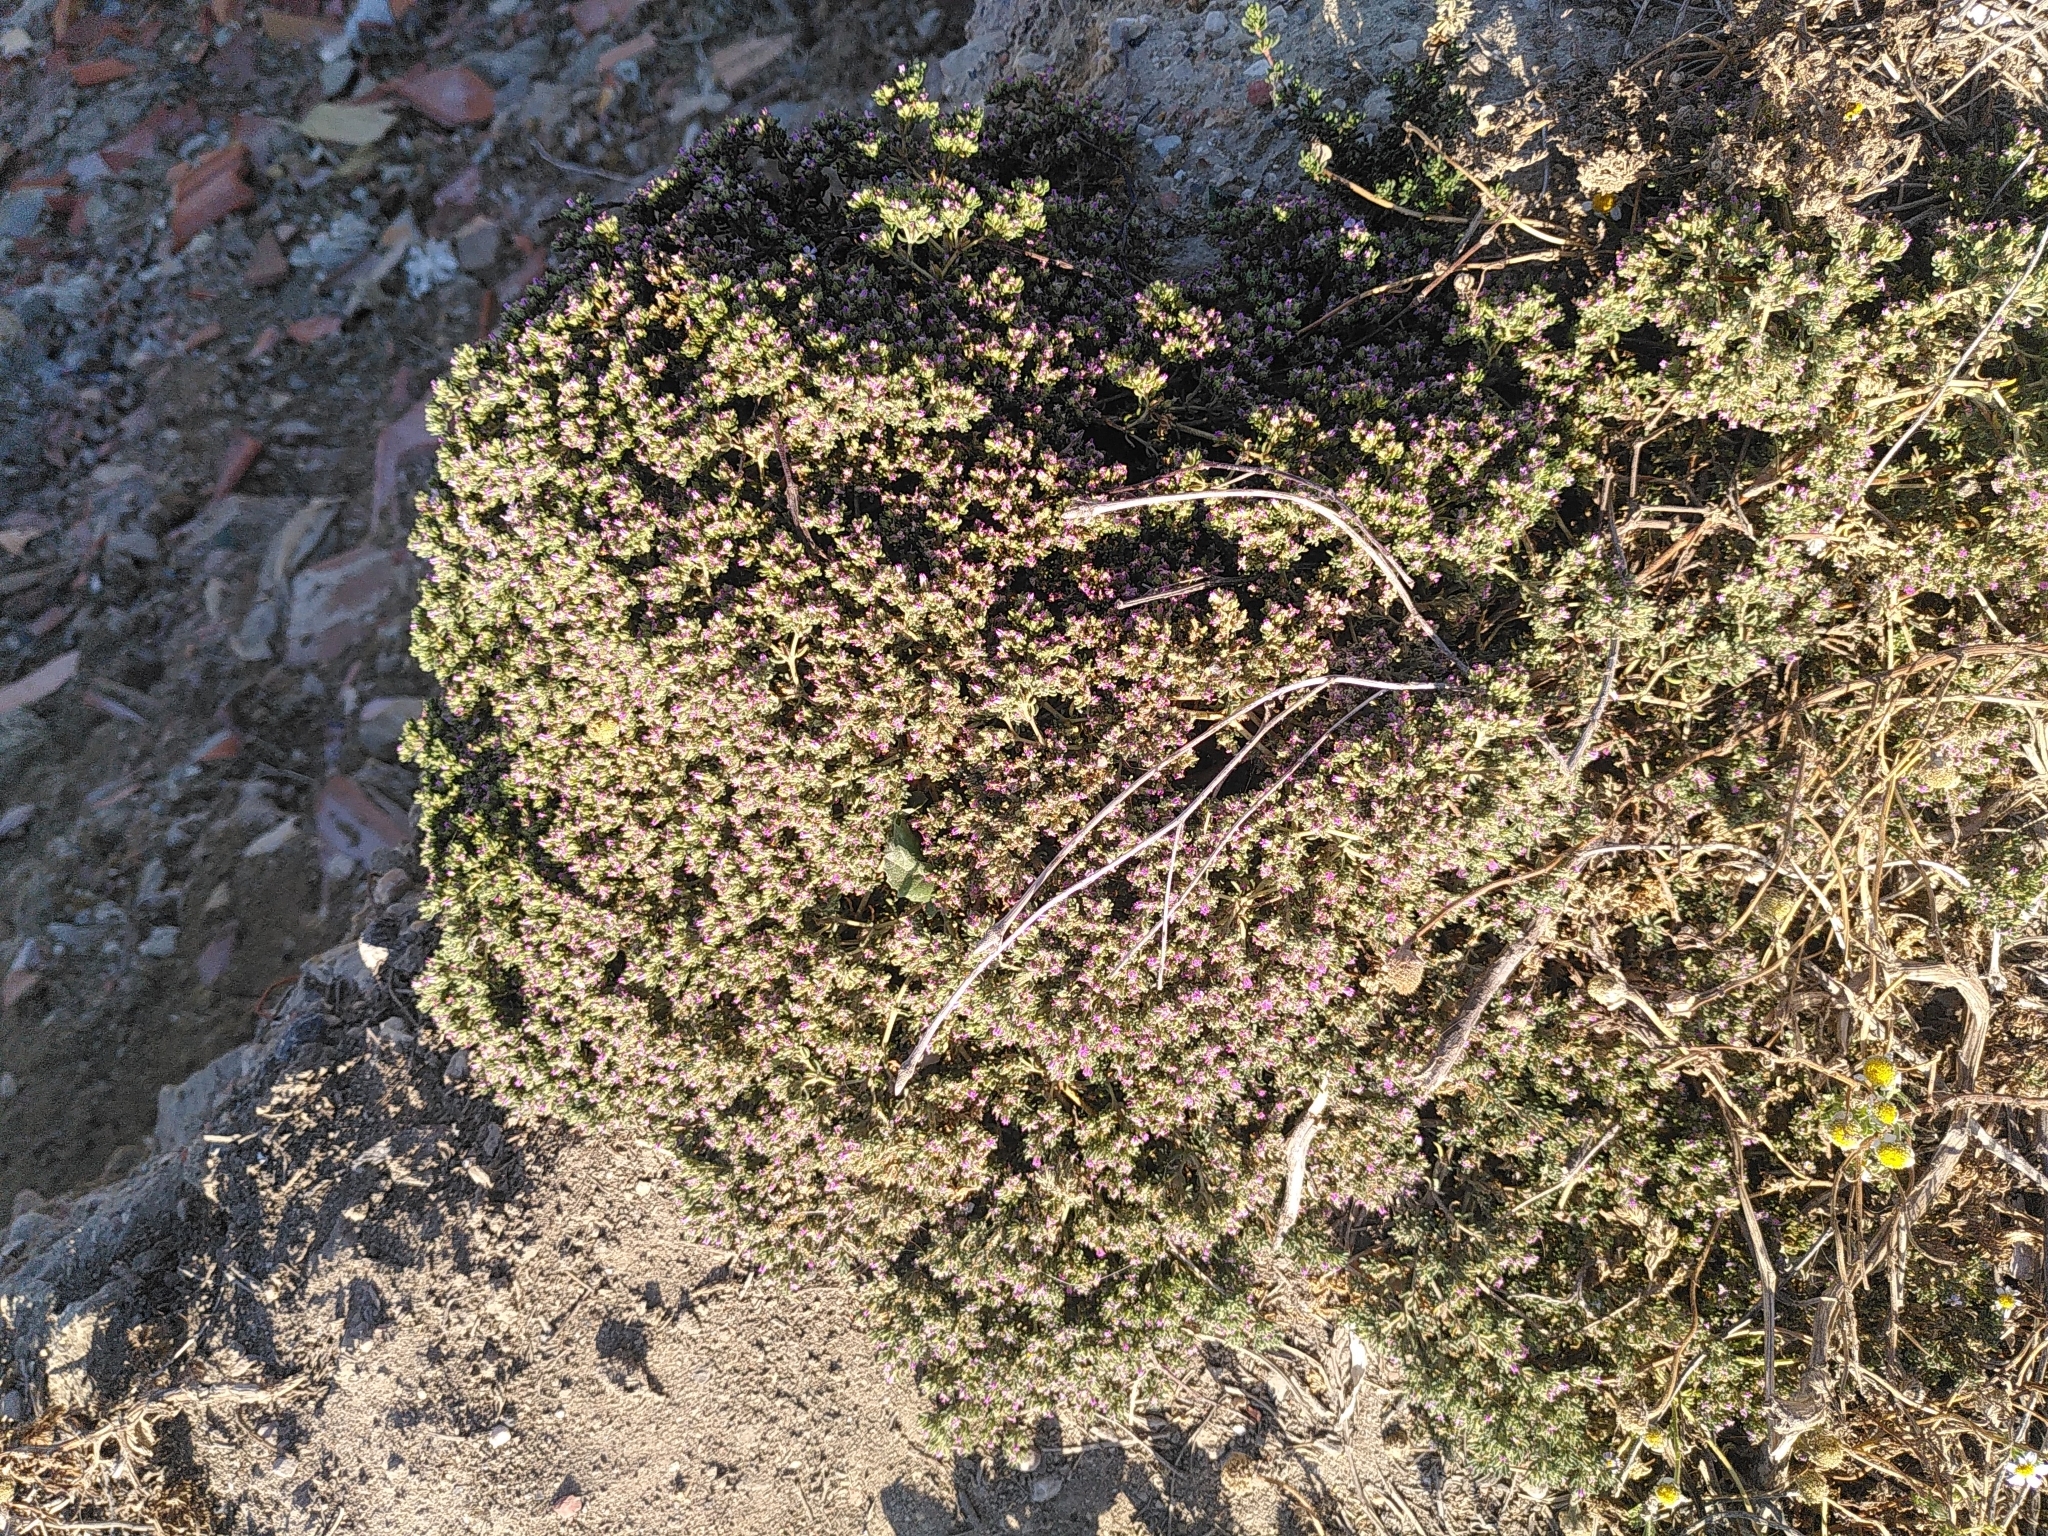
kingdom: Plantae
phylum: Tracheophyta
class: Magnoliopsida
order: Caryophyllales
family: Frankeniaceae
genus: Frankenia
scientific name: Frankenia hirsuta
